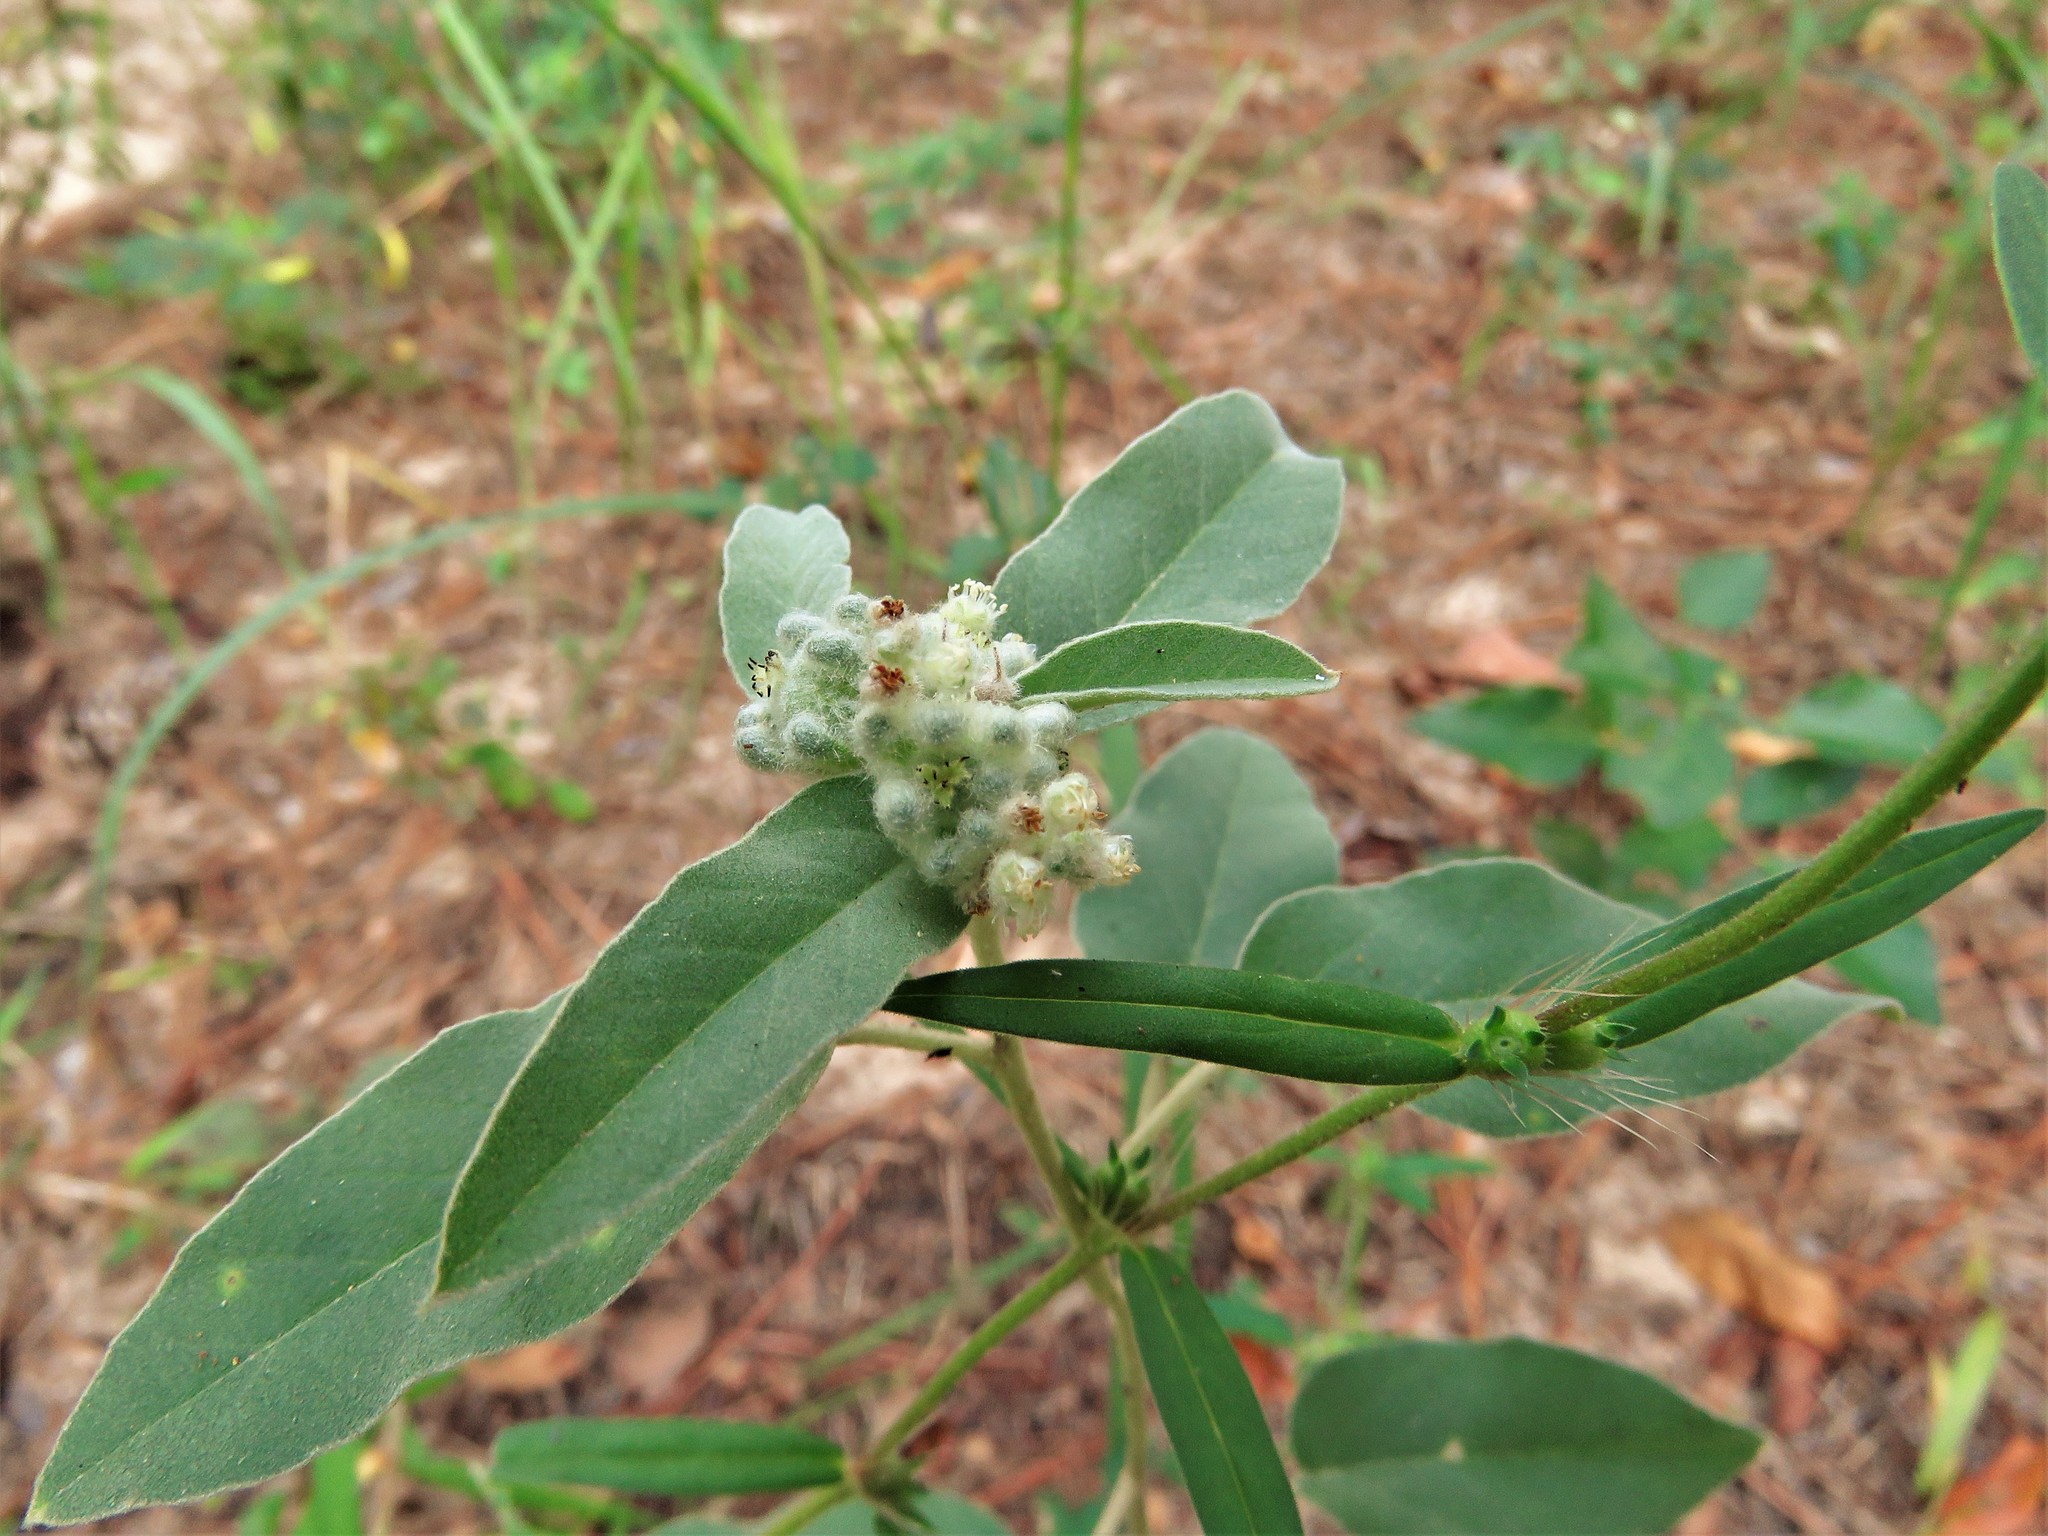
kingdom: Plantae
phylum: Tracheophyta
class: Magnoliopsida
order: Malpighiales
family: Euphorbiaceae
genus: Croton
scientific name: Croton lindheimeri
